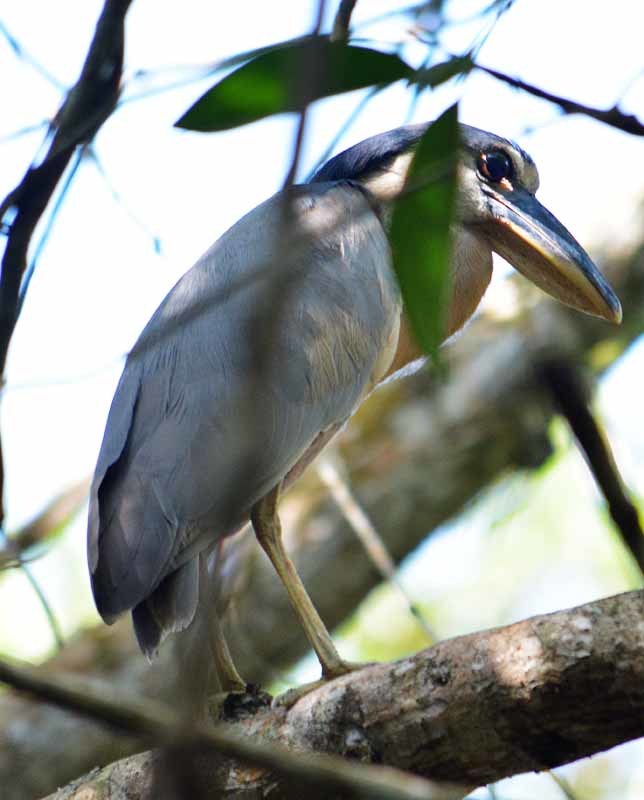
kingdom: Animalia
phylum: Chordata
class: Aves
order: Pelecaniformes
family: Ardeidae
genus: Cochlearius
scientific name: Cochlearius cochlearius
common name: Boat-billed heron
